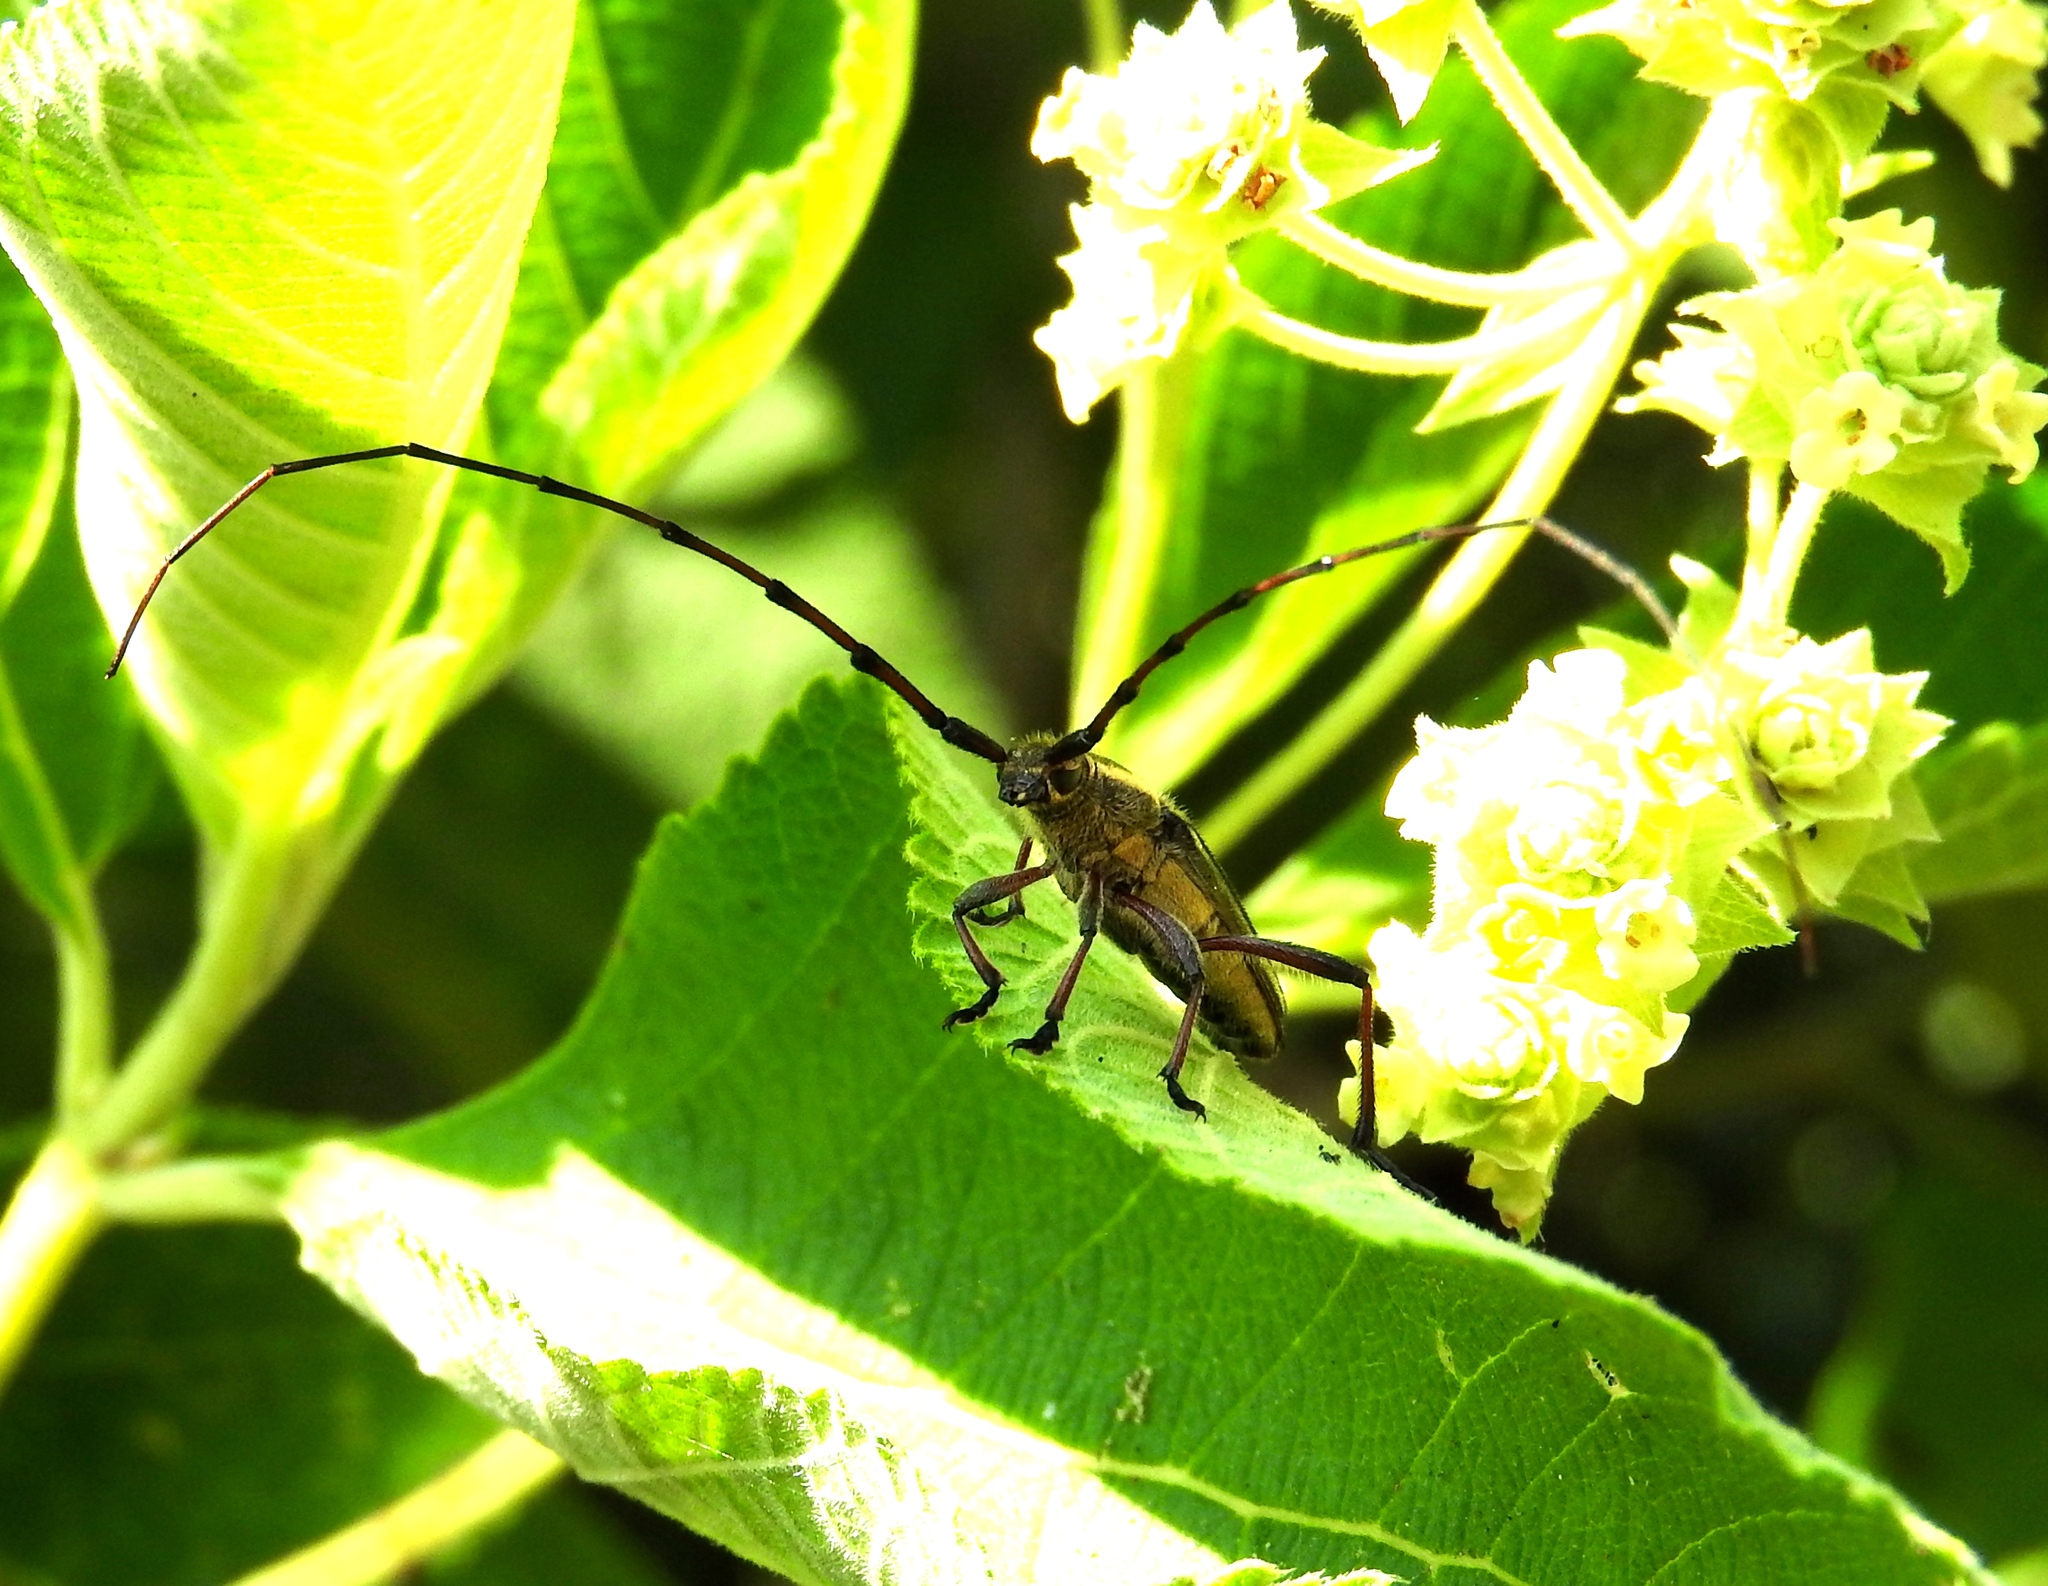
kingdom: Animalia
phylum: Arthropoda
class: Insecta
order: Coleoptera
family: Cerambycidae
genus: Sphaenothecus
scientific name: Sphaenothecus maccartyi
